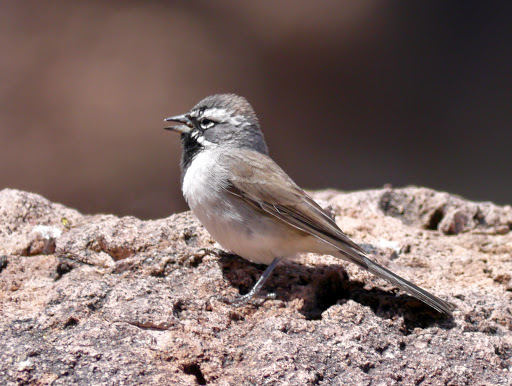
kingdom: Animalia
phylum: Chordata
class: Aves
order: Passeriformes
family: Passerellidae
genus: Amphispiza
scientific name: Amphispiza bilineata
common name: Black-throated sparrow
